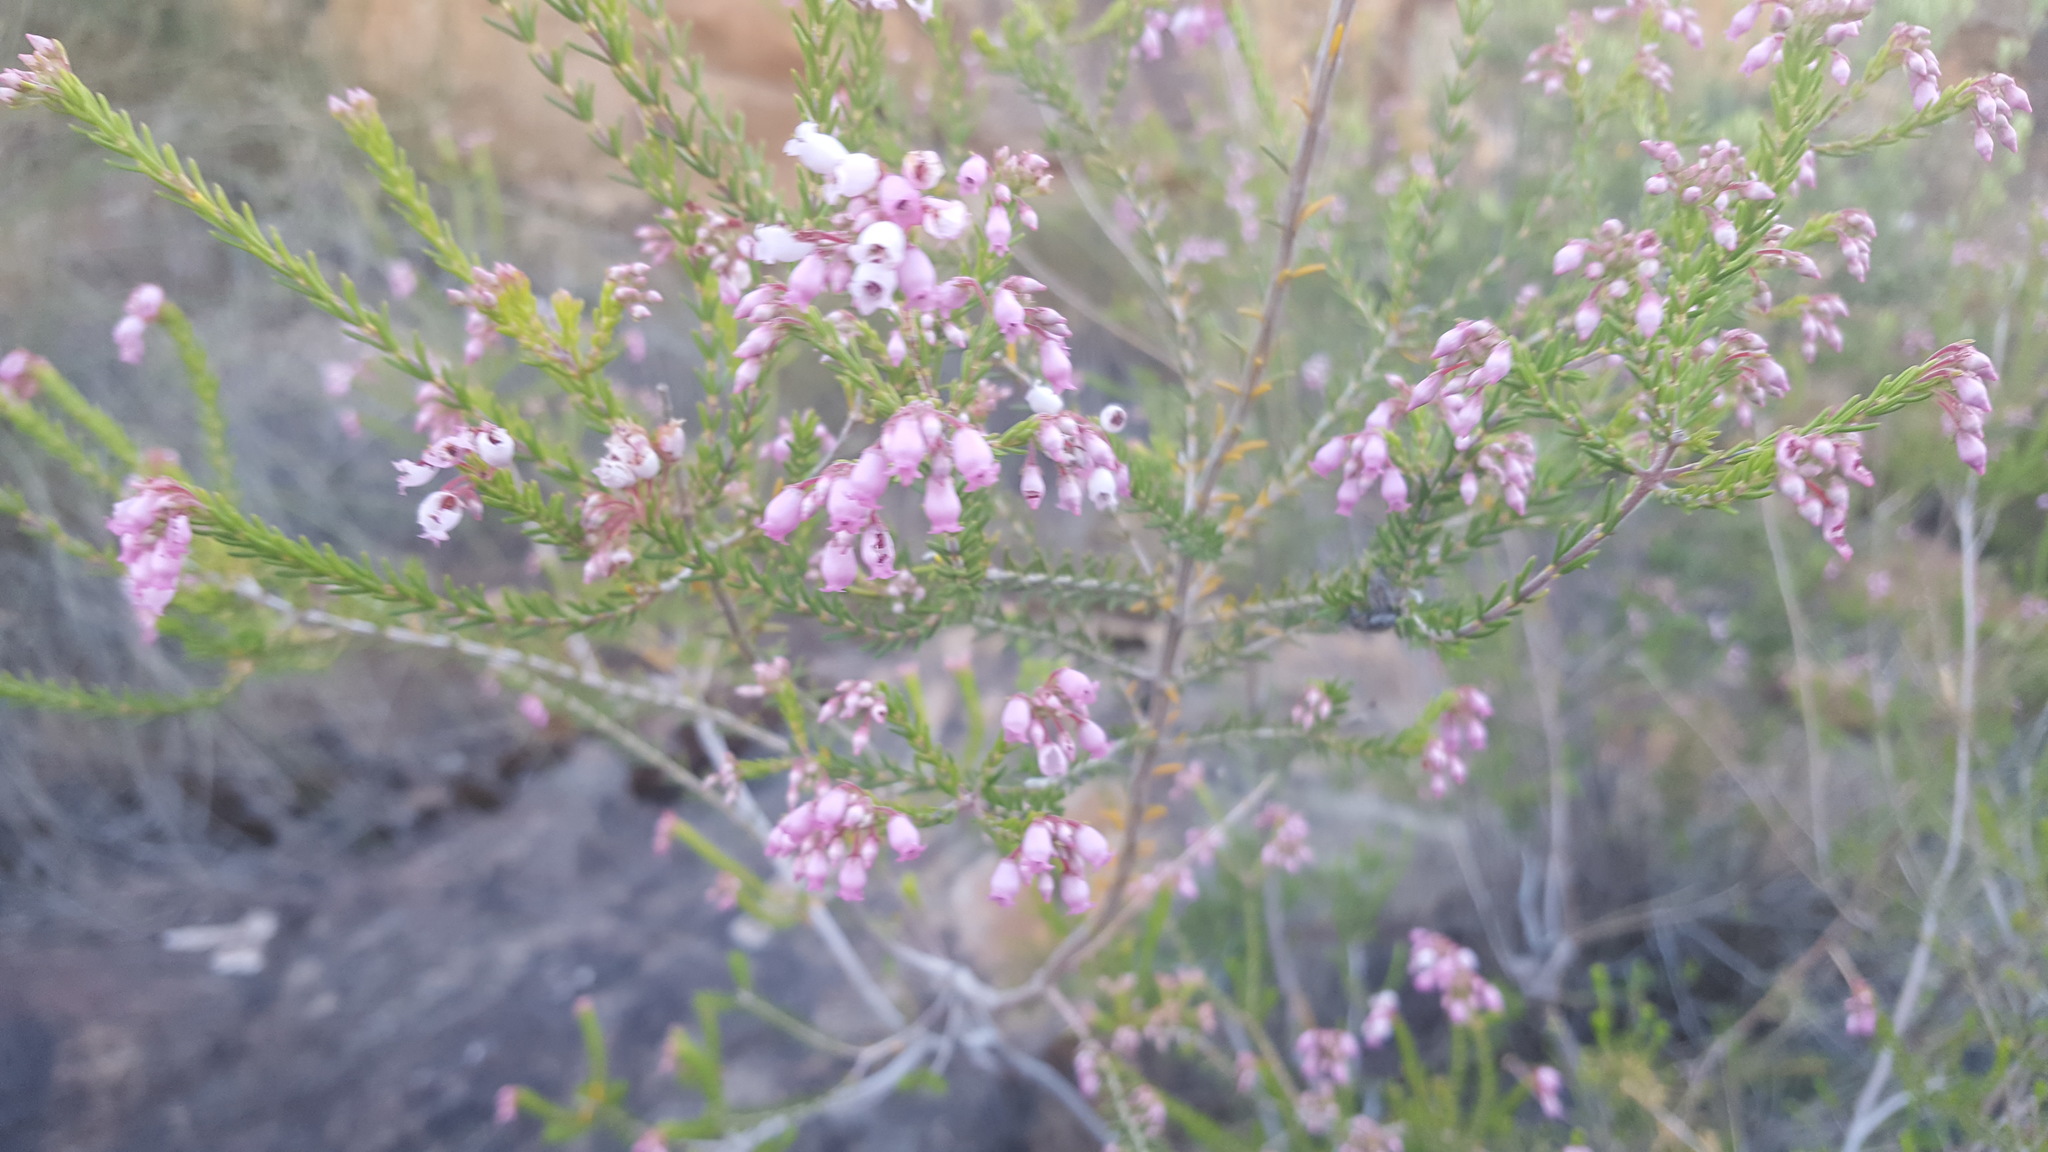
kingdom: Plantae
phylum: Tracheophyta
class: Magnoliopsida
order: Ericales
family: Ericaceae
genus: Erica
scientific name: Erica verecunda
